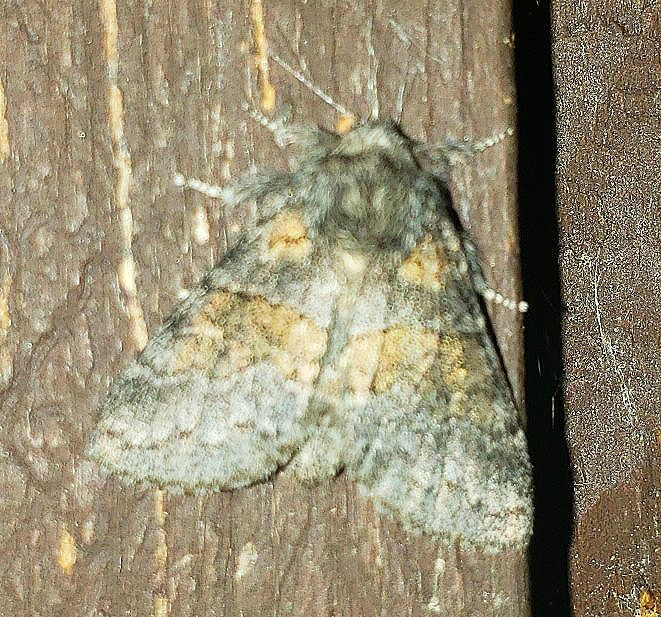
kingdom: Animalia
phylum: Arthropoda
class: Insecta
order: Lepidoptera
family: Notodontidae
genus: Gluphisia
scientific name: Gluphisia septentrionis
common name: Common gluphisia
